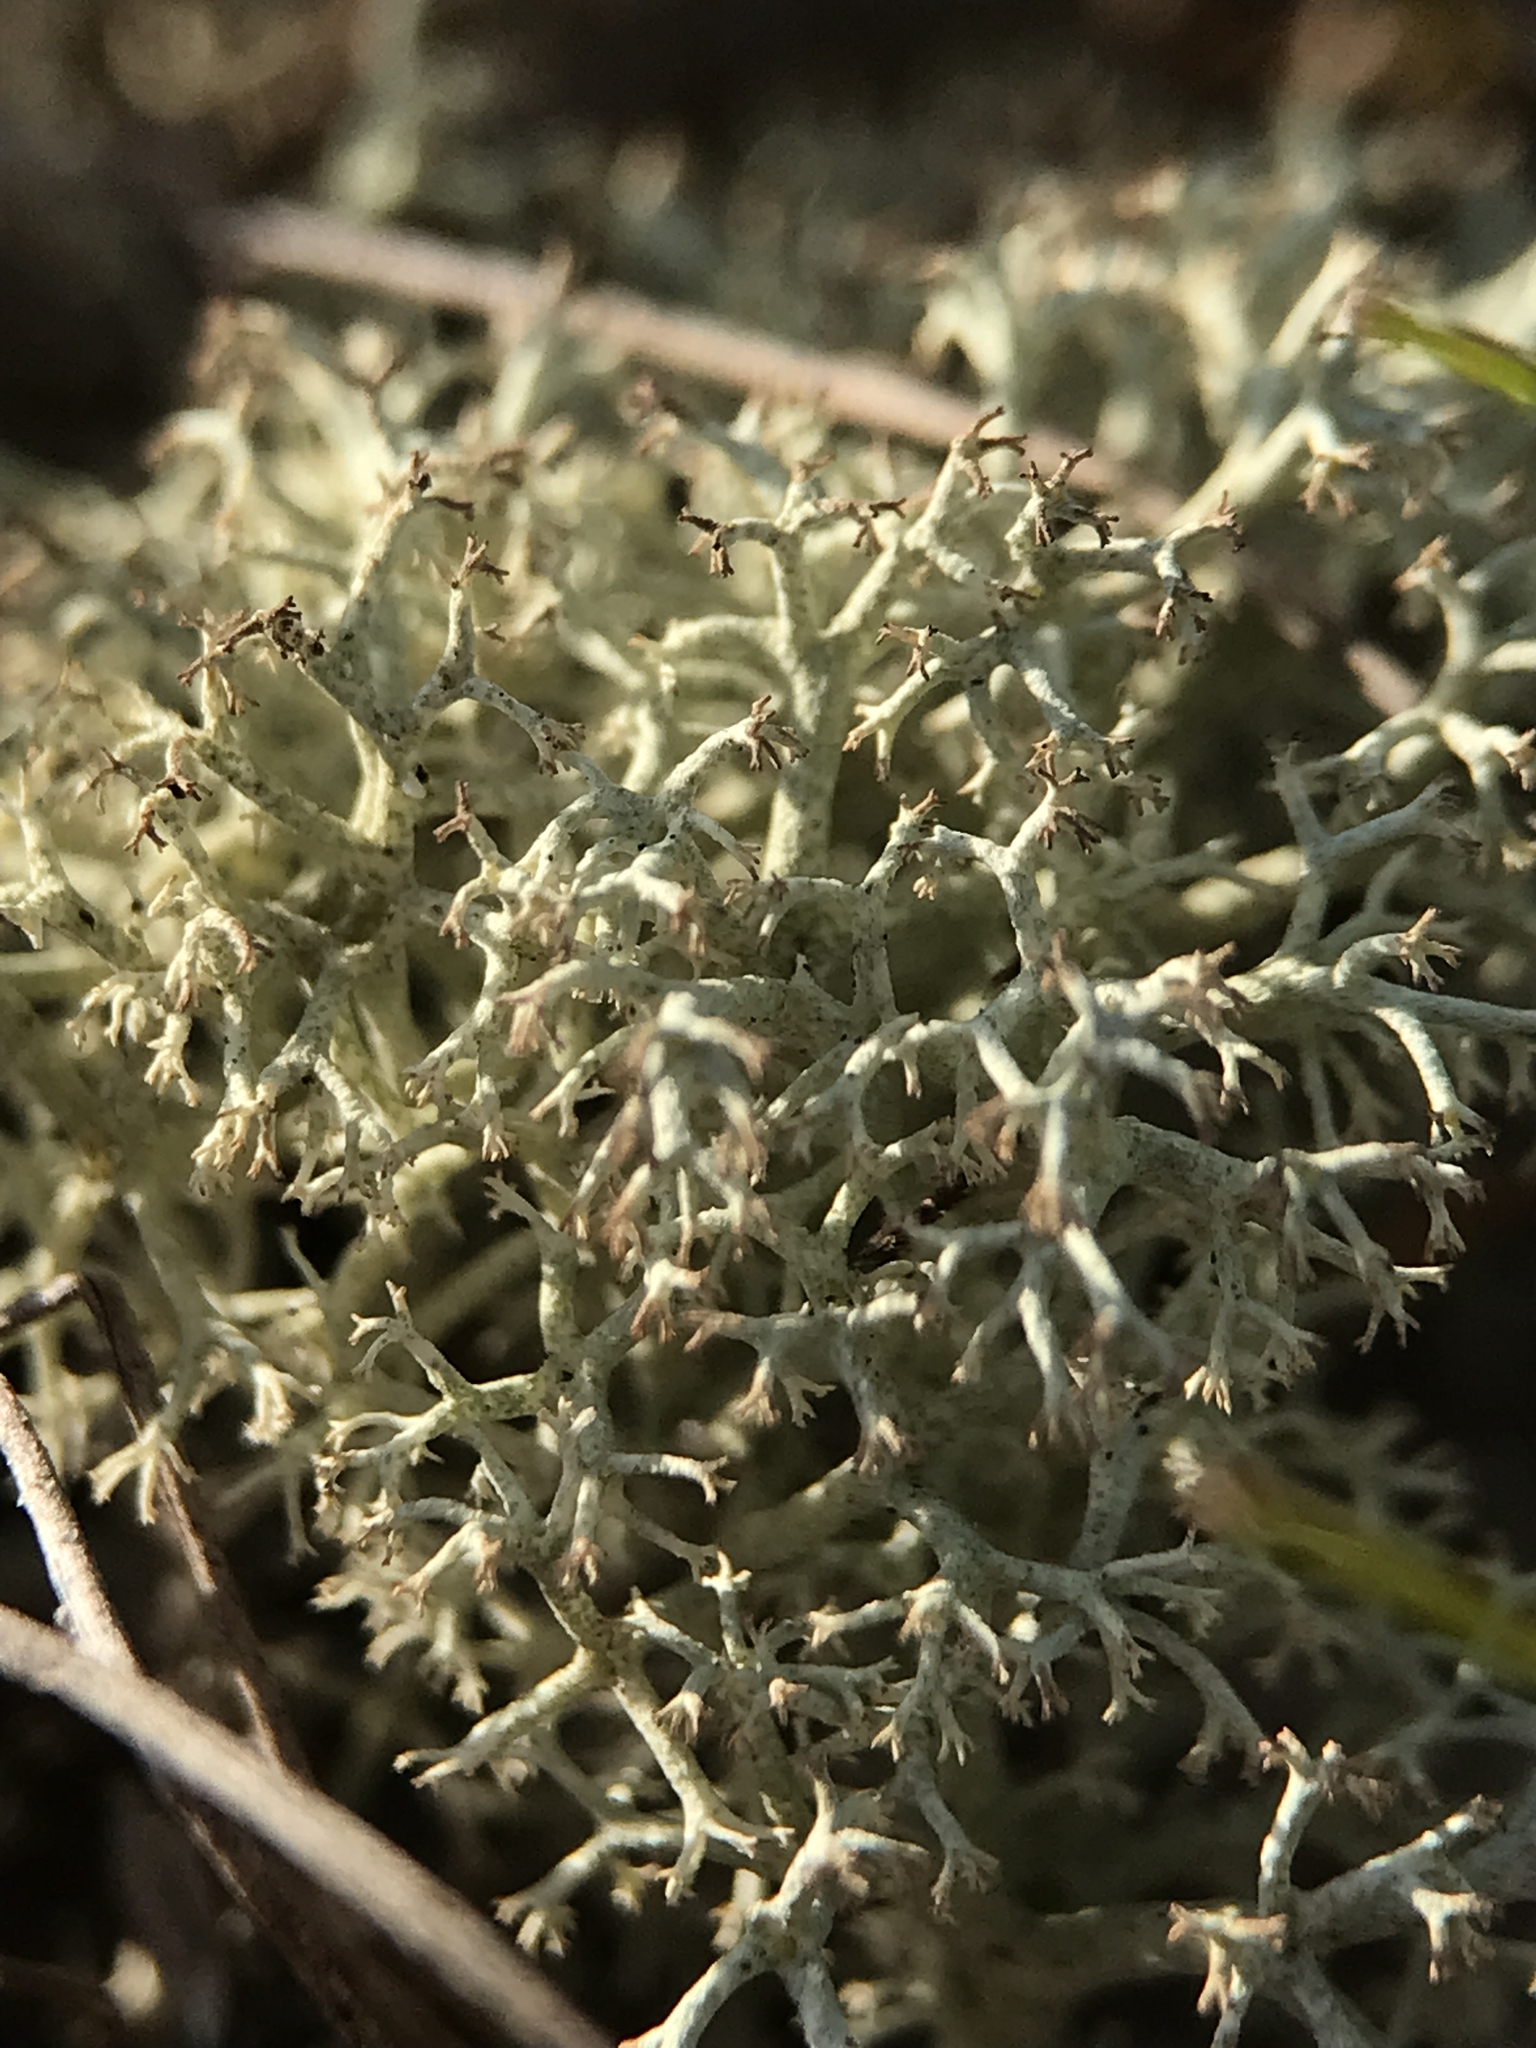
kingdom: Fungi
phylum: Ascomycota
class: Lecanoromycetes
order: Lecanorales
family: Cladoniaceae
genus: Cladonia
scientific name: Cladonia portentosa
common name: Reindeer lichen
